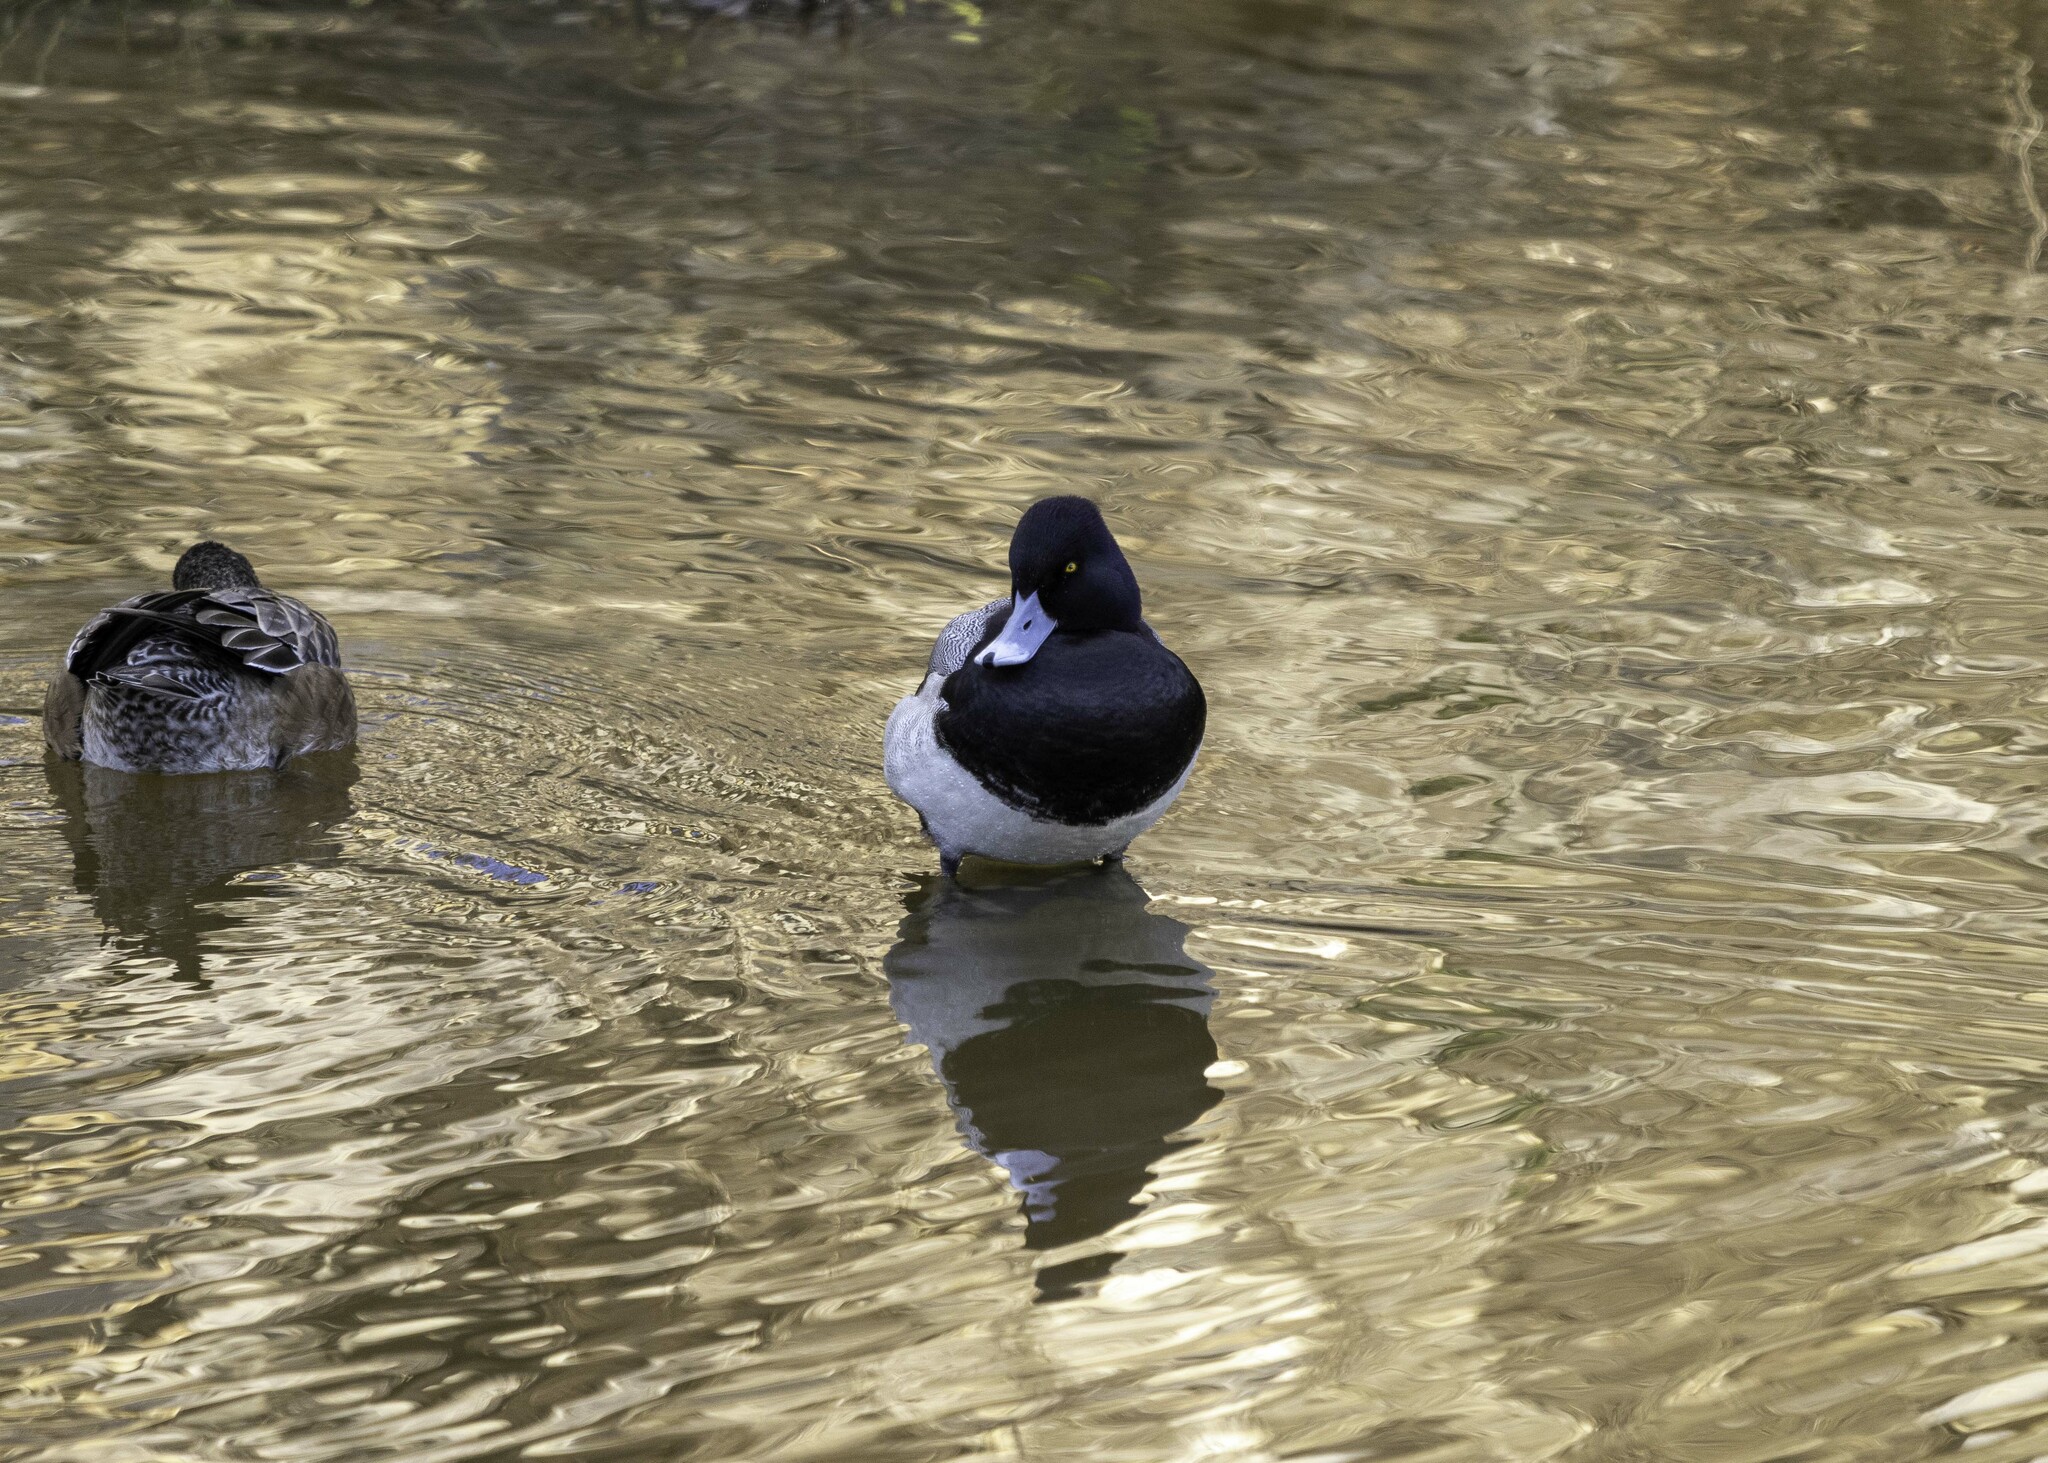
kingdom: Animalia
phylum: Chordata
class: Aves
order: Anseriformes
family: Anatidae
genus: Aythya
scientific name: Aythya affinis
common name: Lesser scaup
